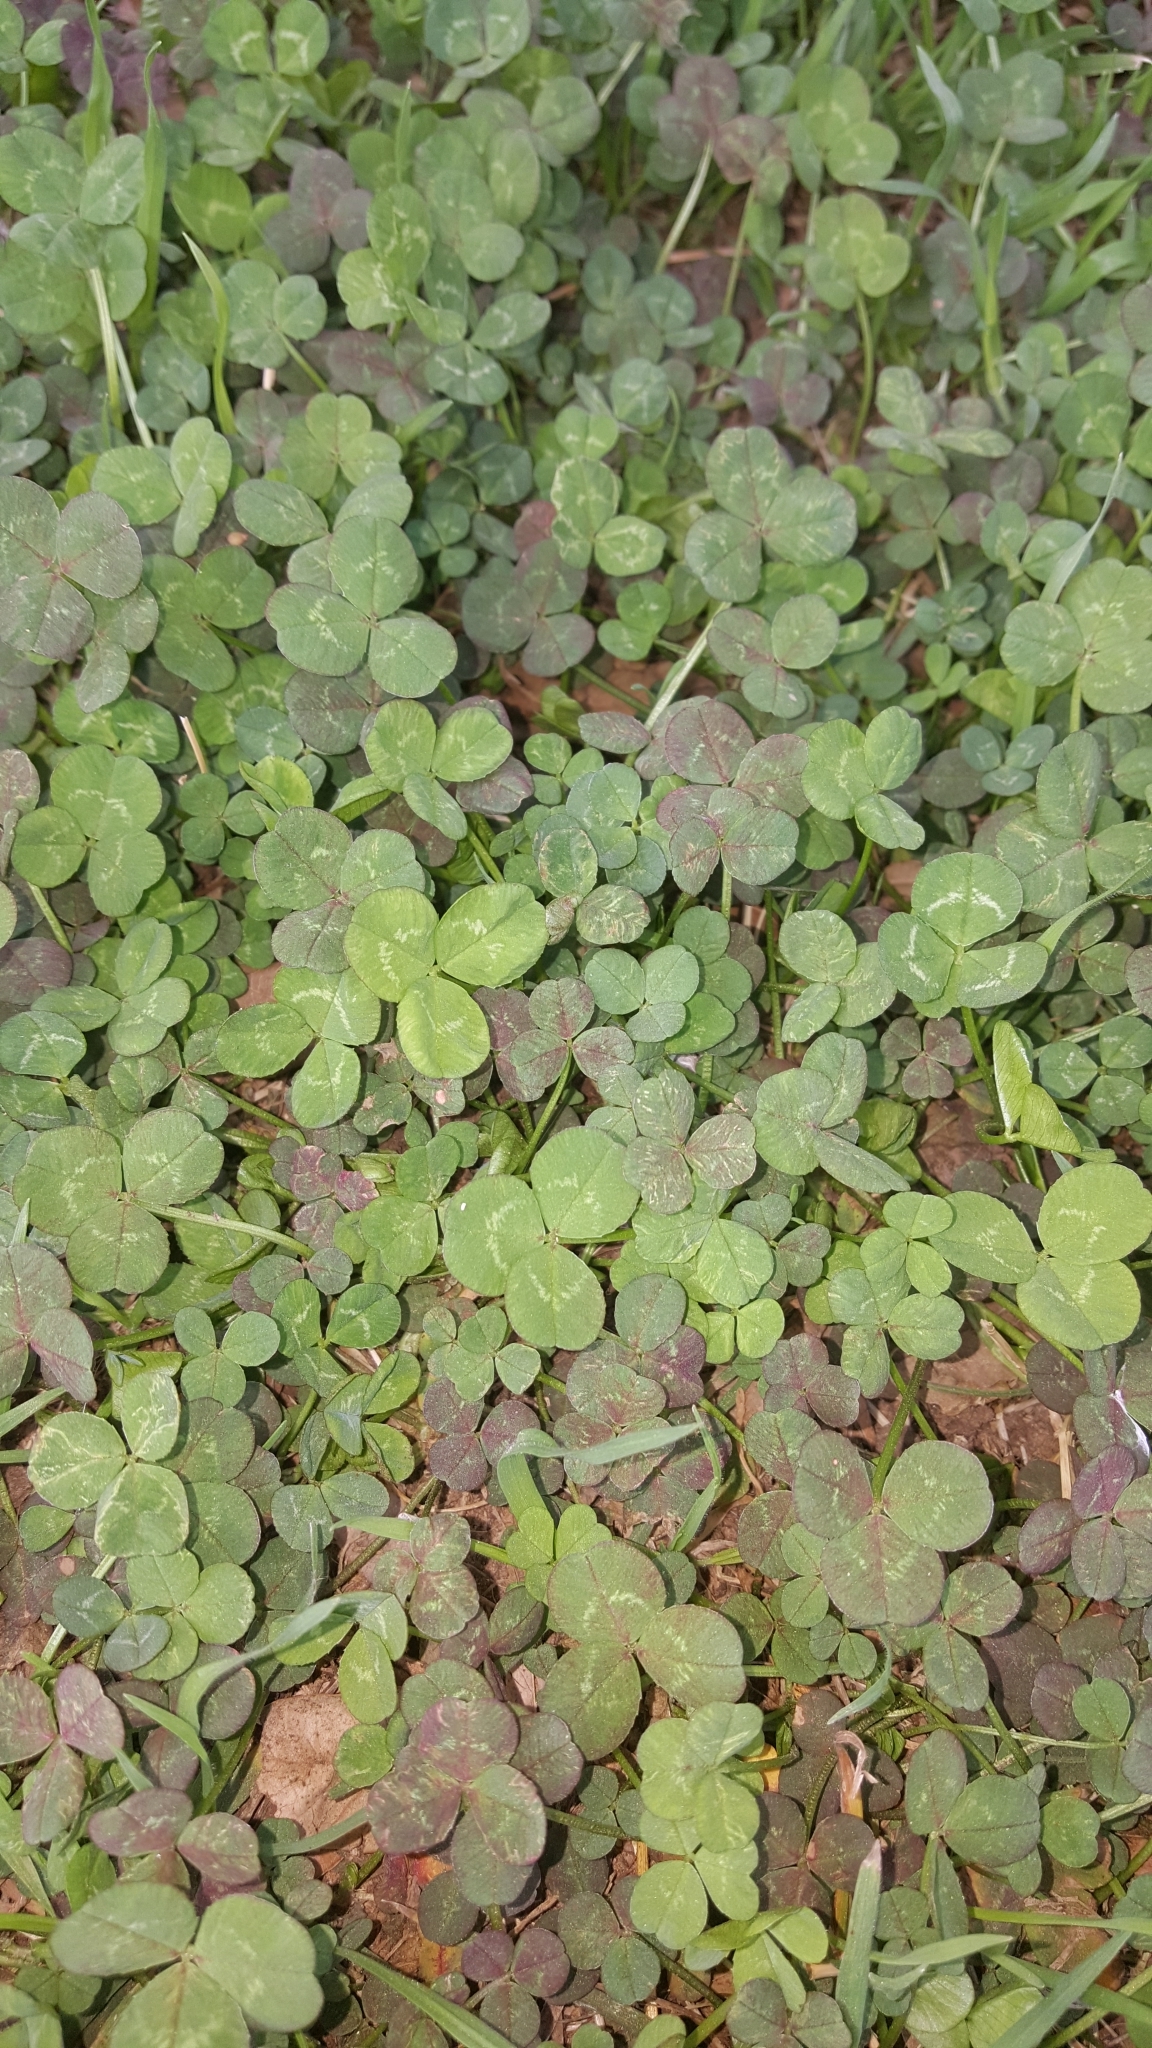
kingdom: Plantae
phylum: Tracheophyta
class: Magnoliopsida
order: Fabales
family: Fabaceae
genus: Trifolium
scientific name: Trifolium repens
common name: White clover
